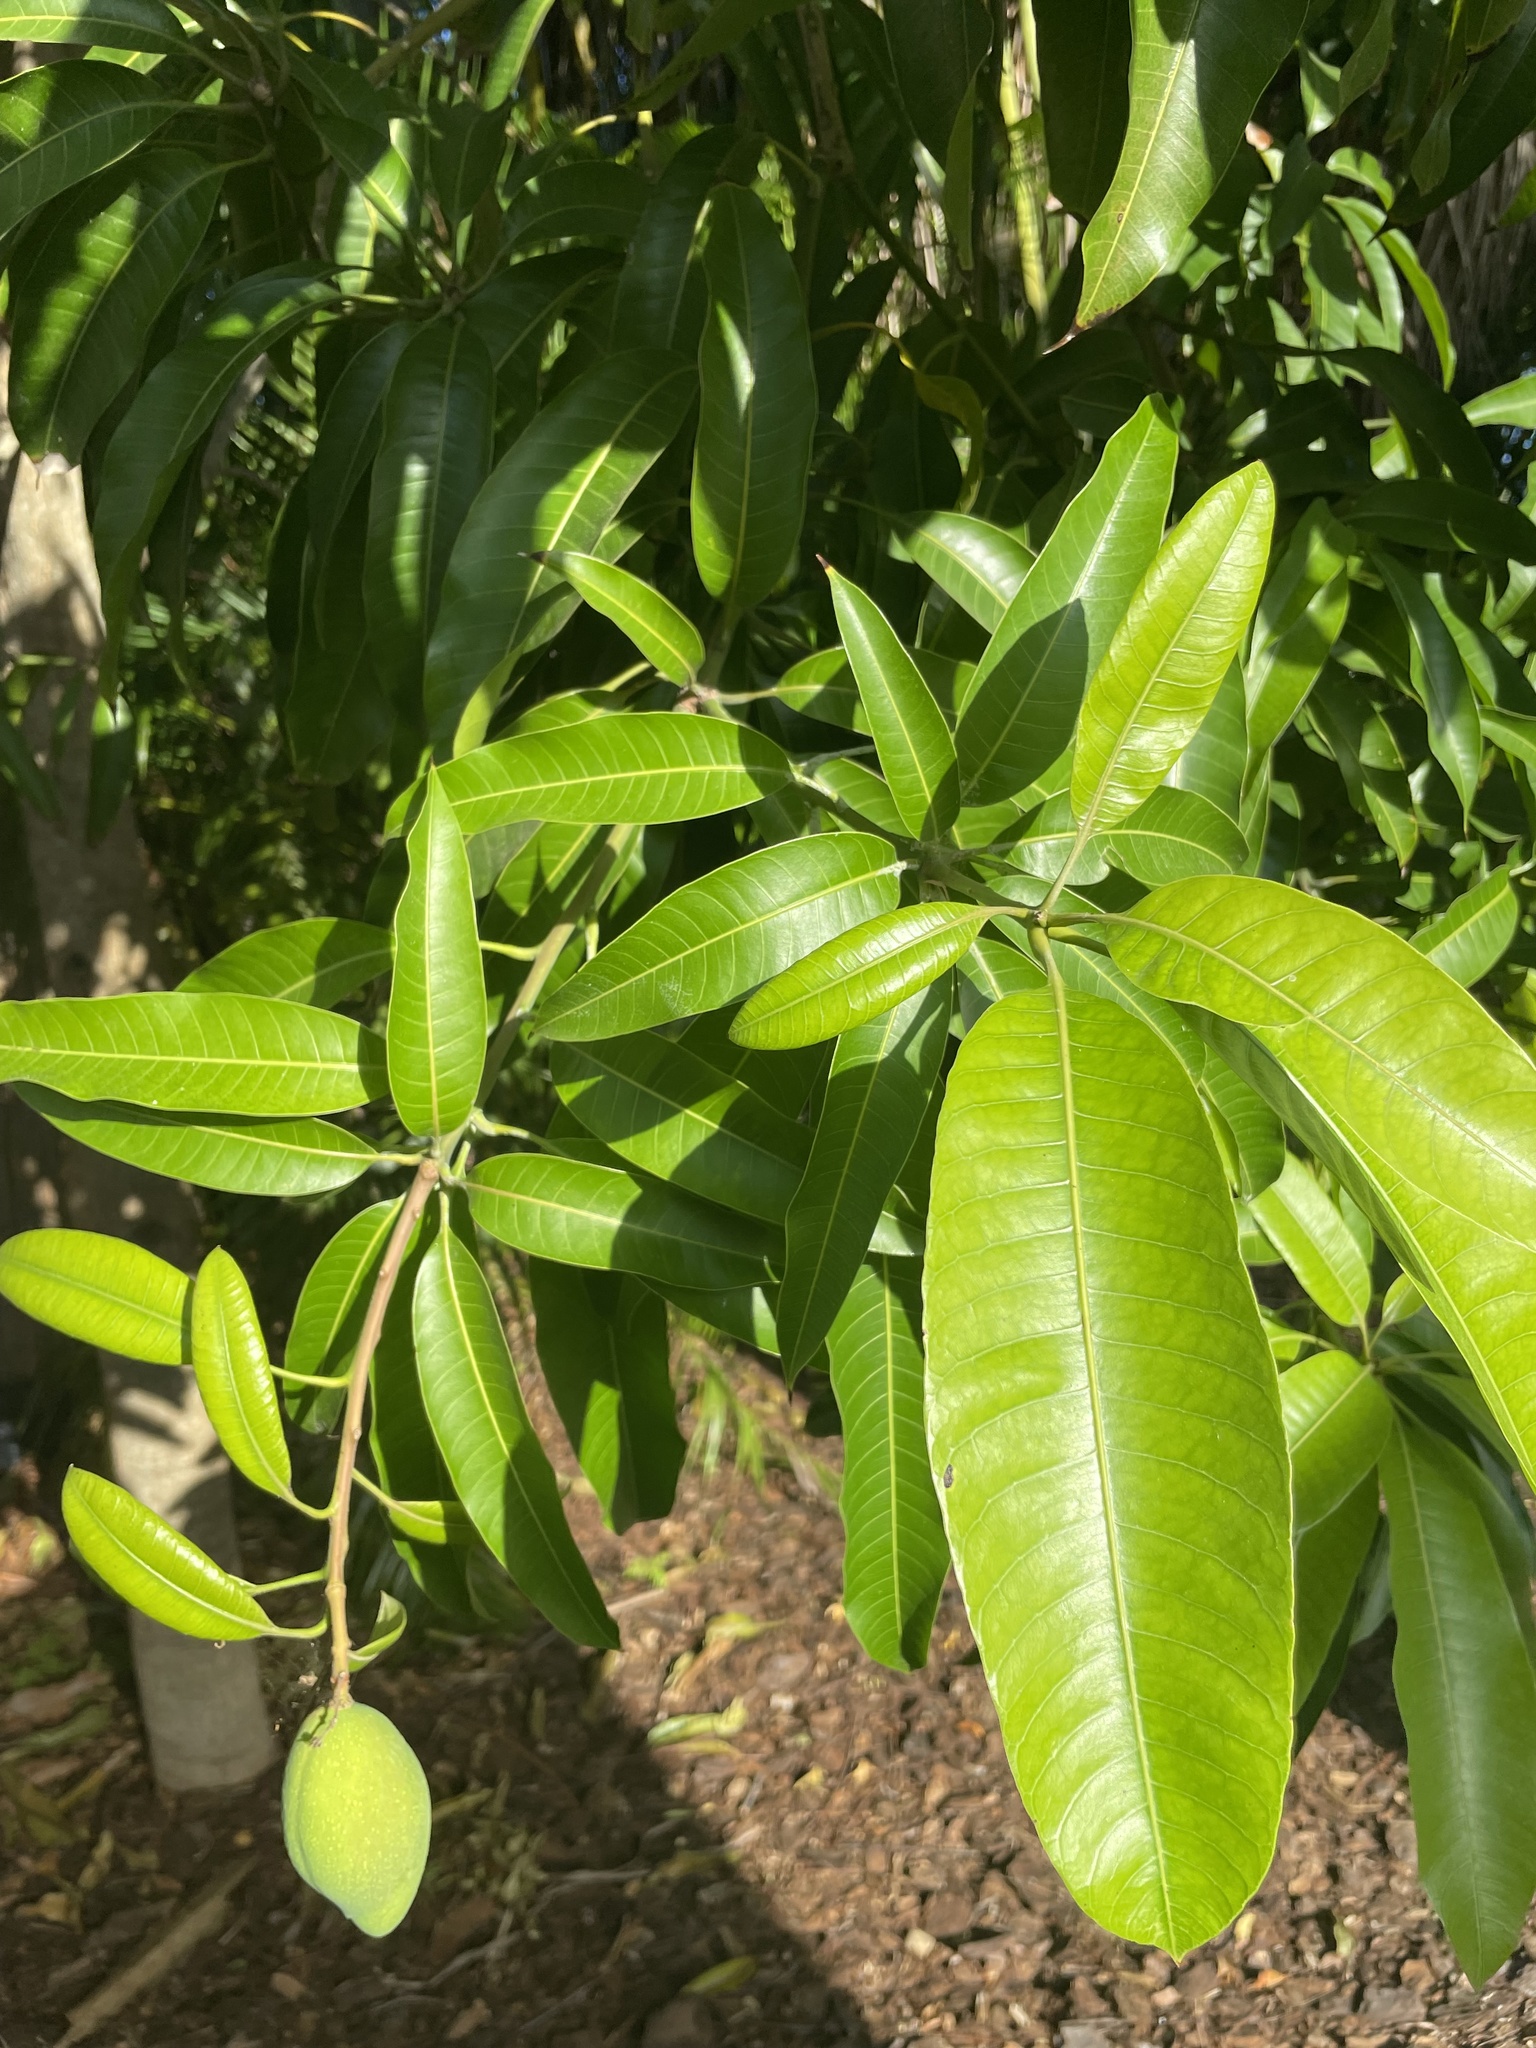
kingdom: Plantae
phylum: Tracheophyta
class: Magnoliopsida
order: Sapindales
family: Anacardiaceae
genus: Mangifera
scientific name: Mangifera indica
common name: Mango
